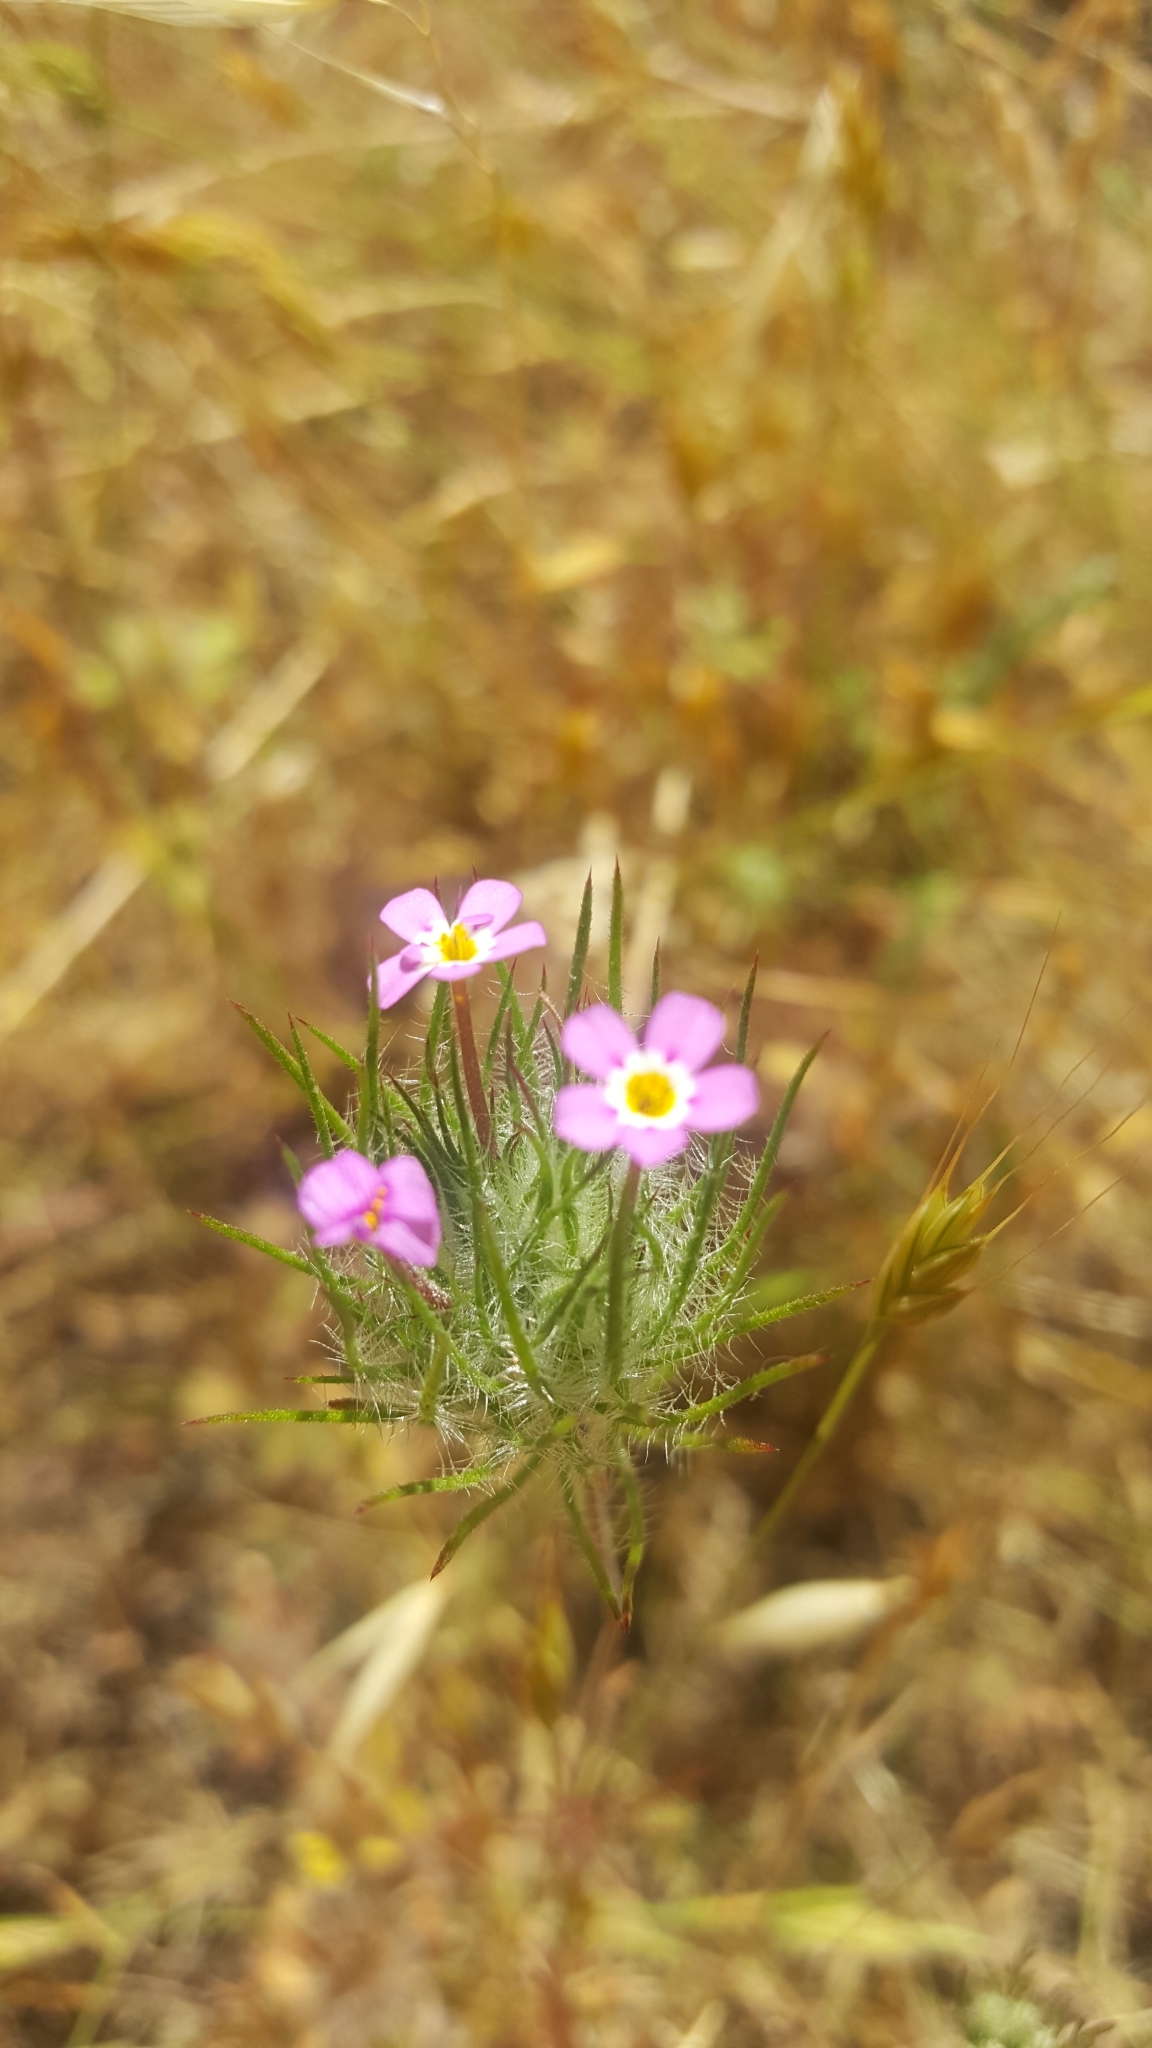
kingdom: Plantae
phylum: Tracheophyta
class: Magnoliopsida
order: Ericales
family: Polemoniaceae
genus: Leptosiphon
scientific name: Leptosiphon ciliatus
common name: Whiskerbrush
